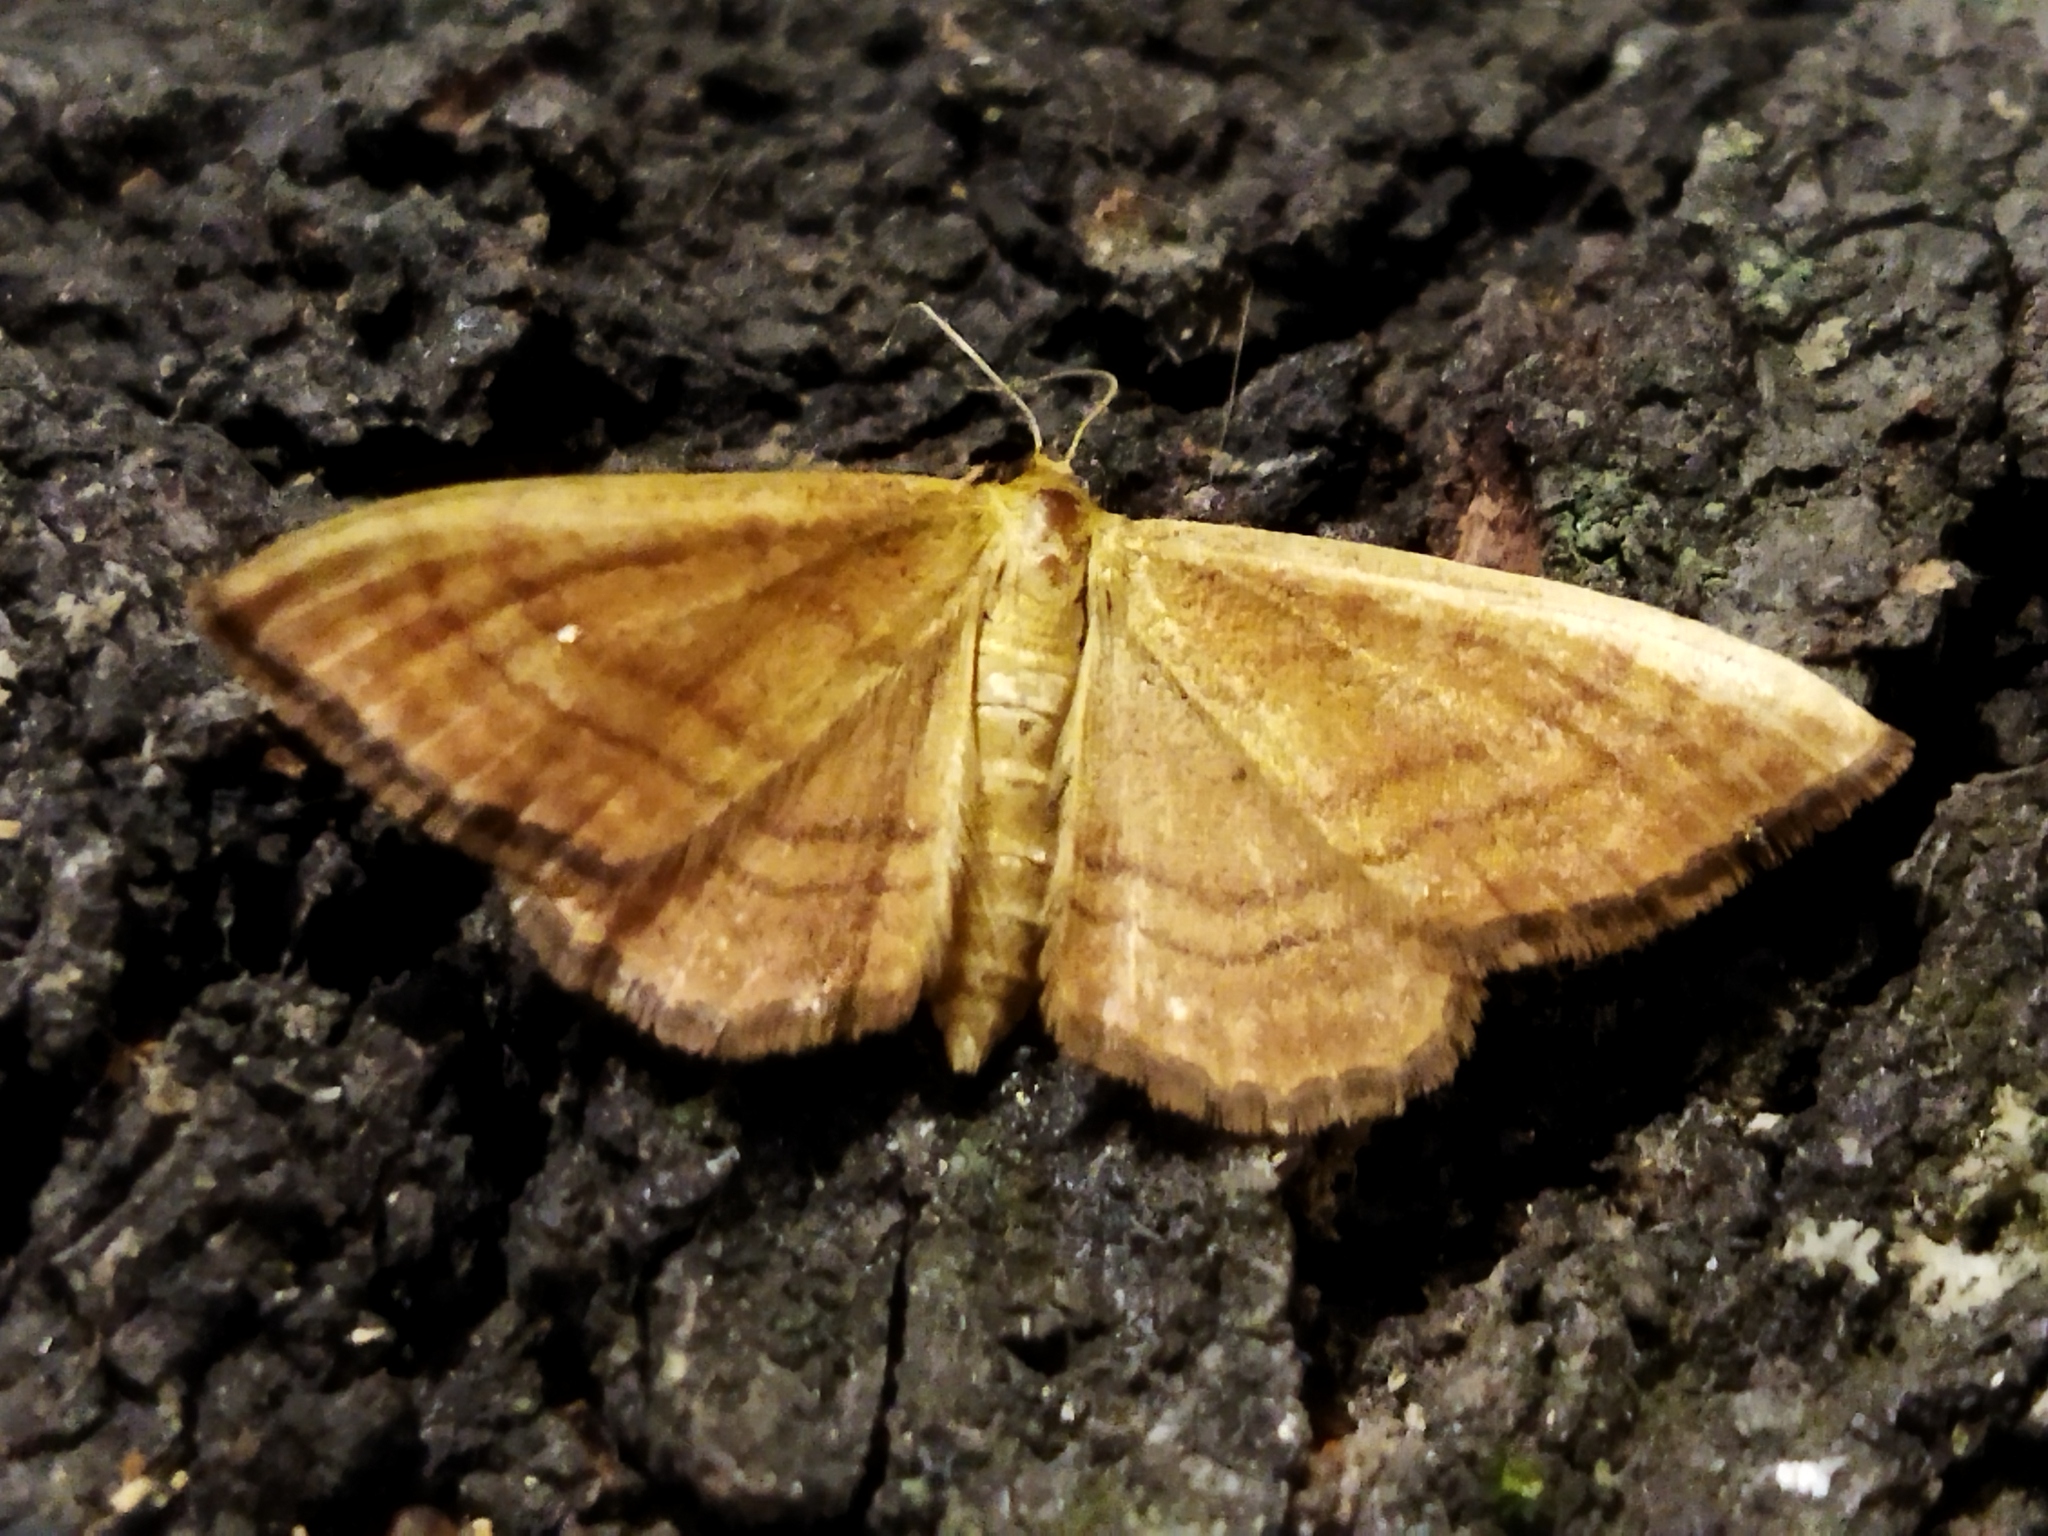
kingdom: Animalia
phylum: Arthropoda
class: Insecta
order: Lepidoptera
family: Geometridae
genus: Idaea
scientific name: Idaea ochrata
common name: Bright wave
